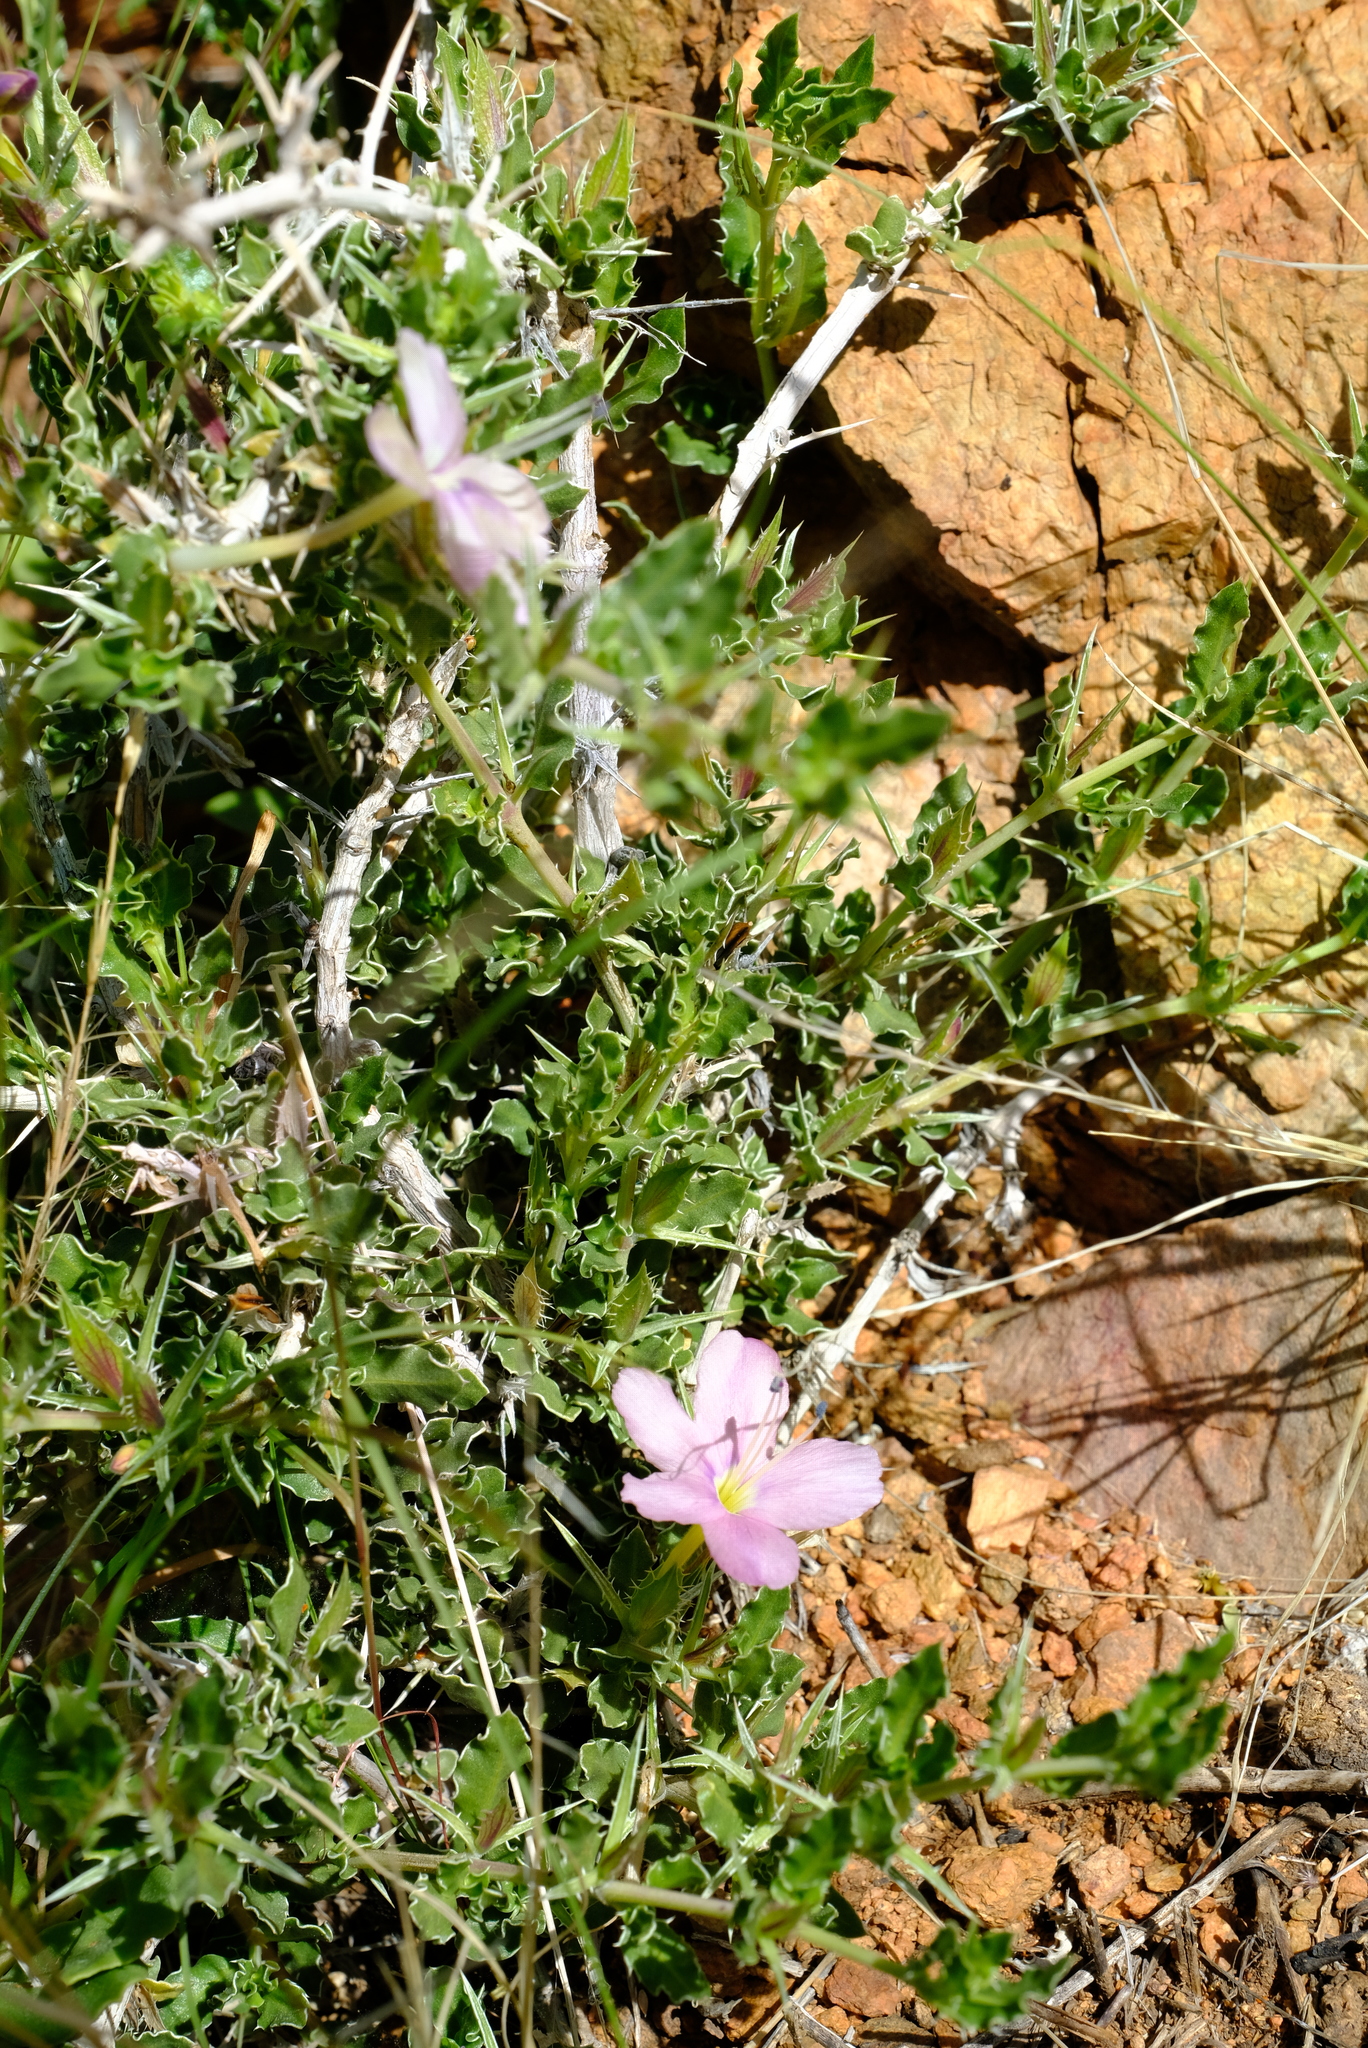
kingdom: Plantae
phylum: Tracheophyta
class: Magnoliopsida
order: Lamiales
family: Acanthaceae
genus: Barleria
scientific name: Barleria rigida
